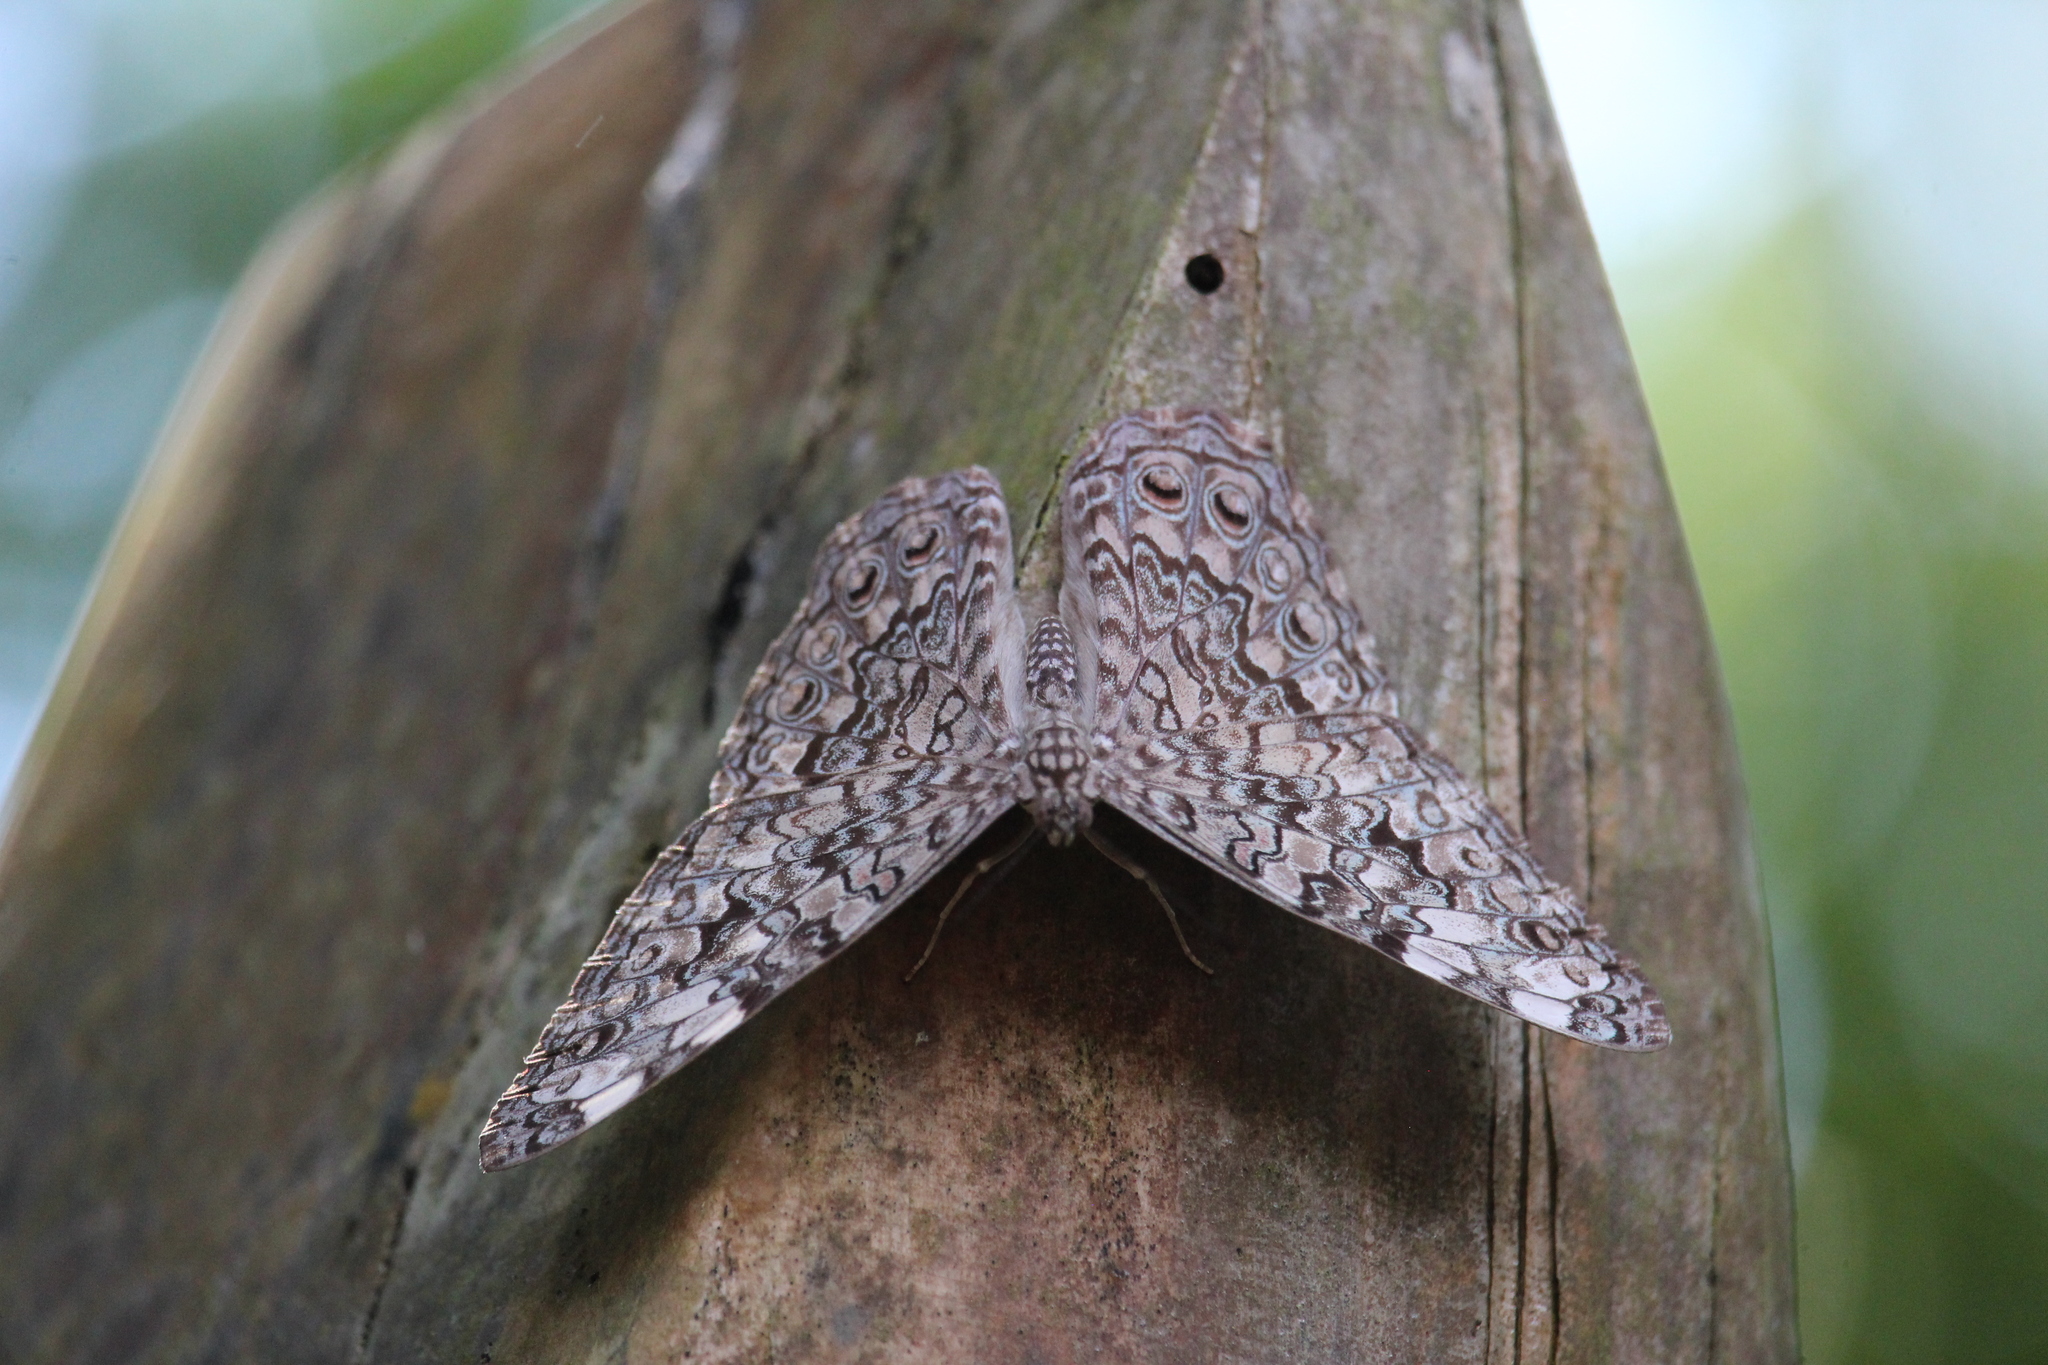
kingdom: Animalia
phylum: Arthropoda
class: Insecta
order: Lepidoptera
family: Nymphalidae
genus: Hamadryas
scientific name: Hamadryas februa
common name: Gray cracker
